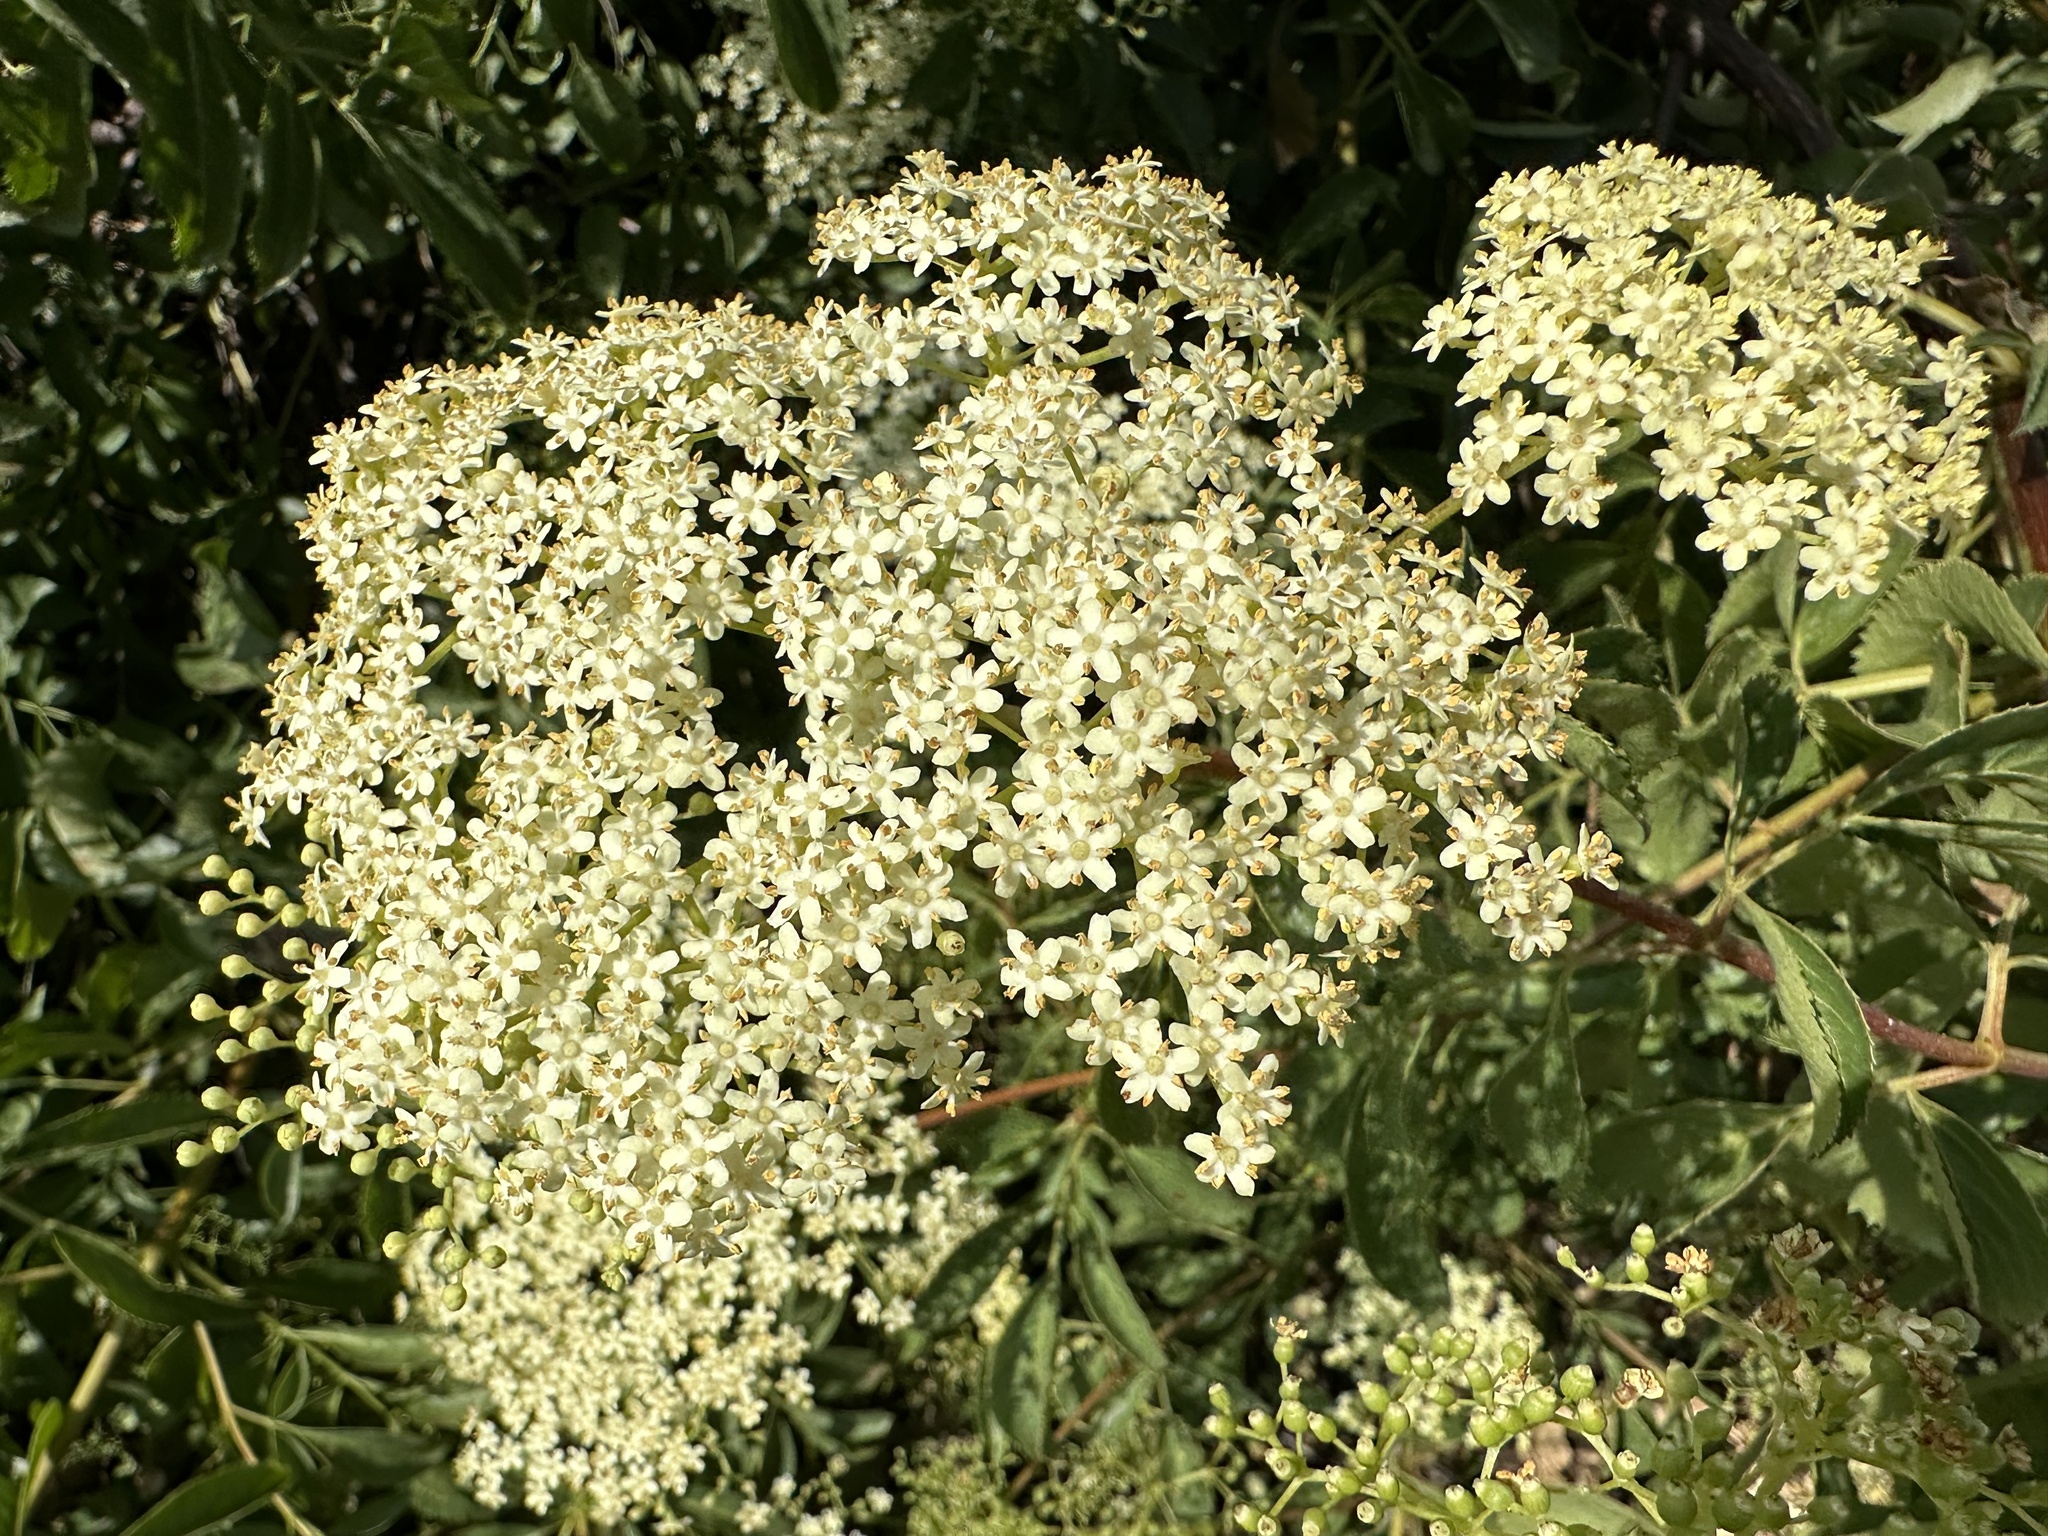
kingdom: Plantae
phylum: Tracheophyta
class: Magnoliopsida
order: Dipsacales
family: Viburnaceae
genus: Sambucus
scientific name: Sambucus cerulea
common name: Blue elder
